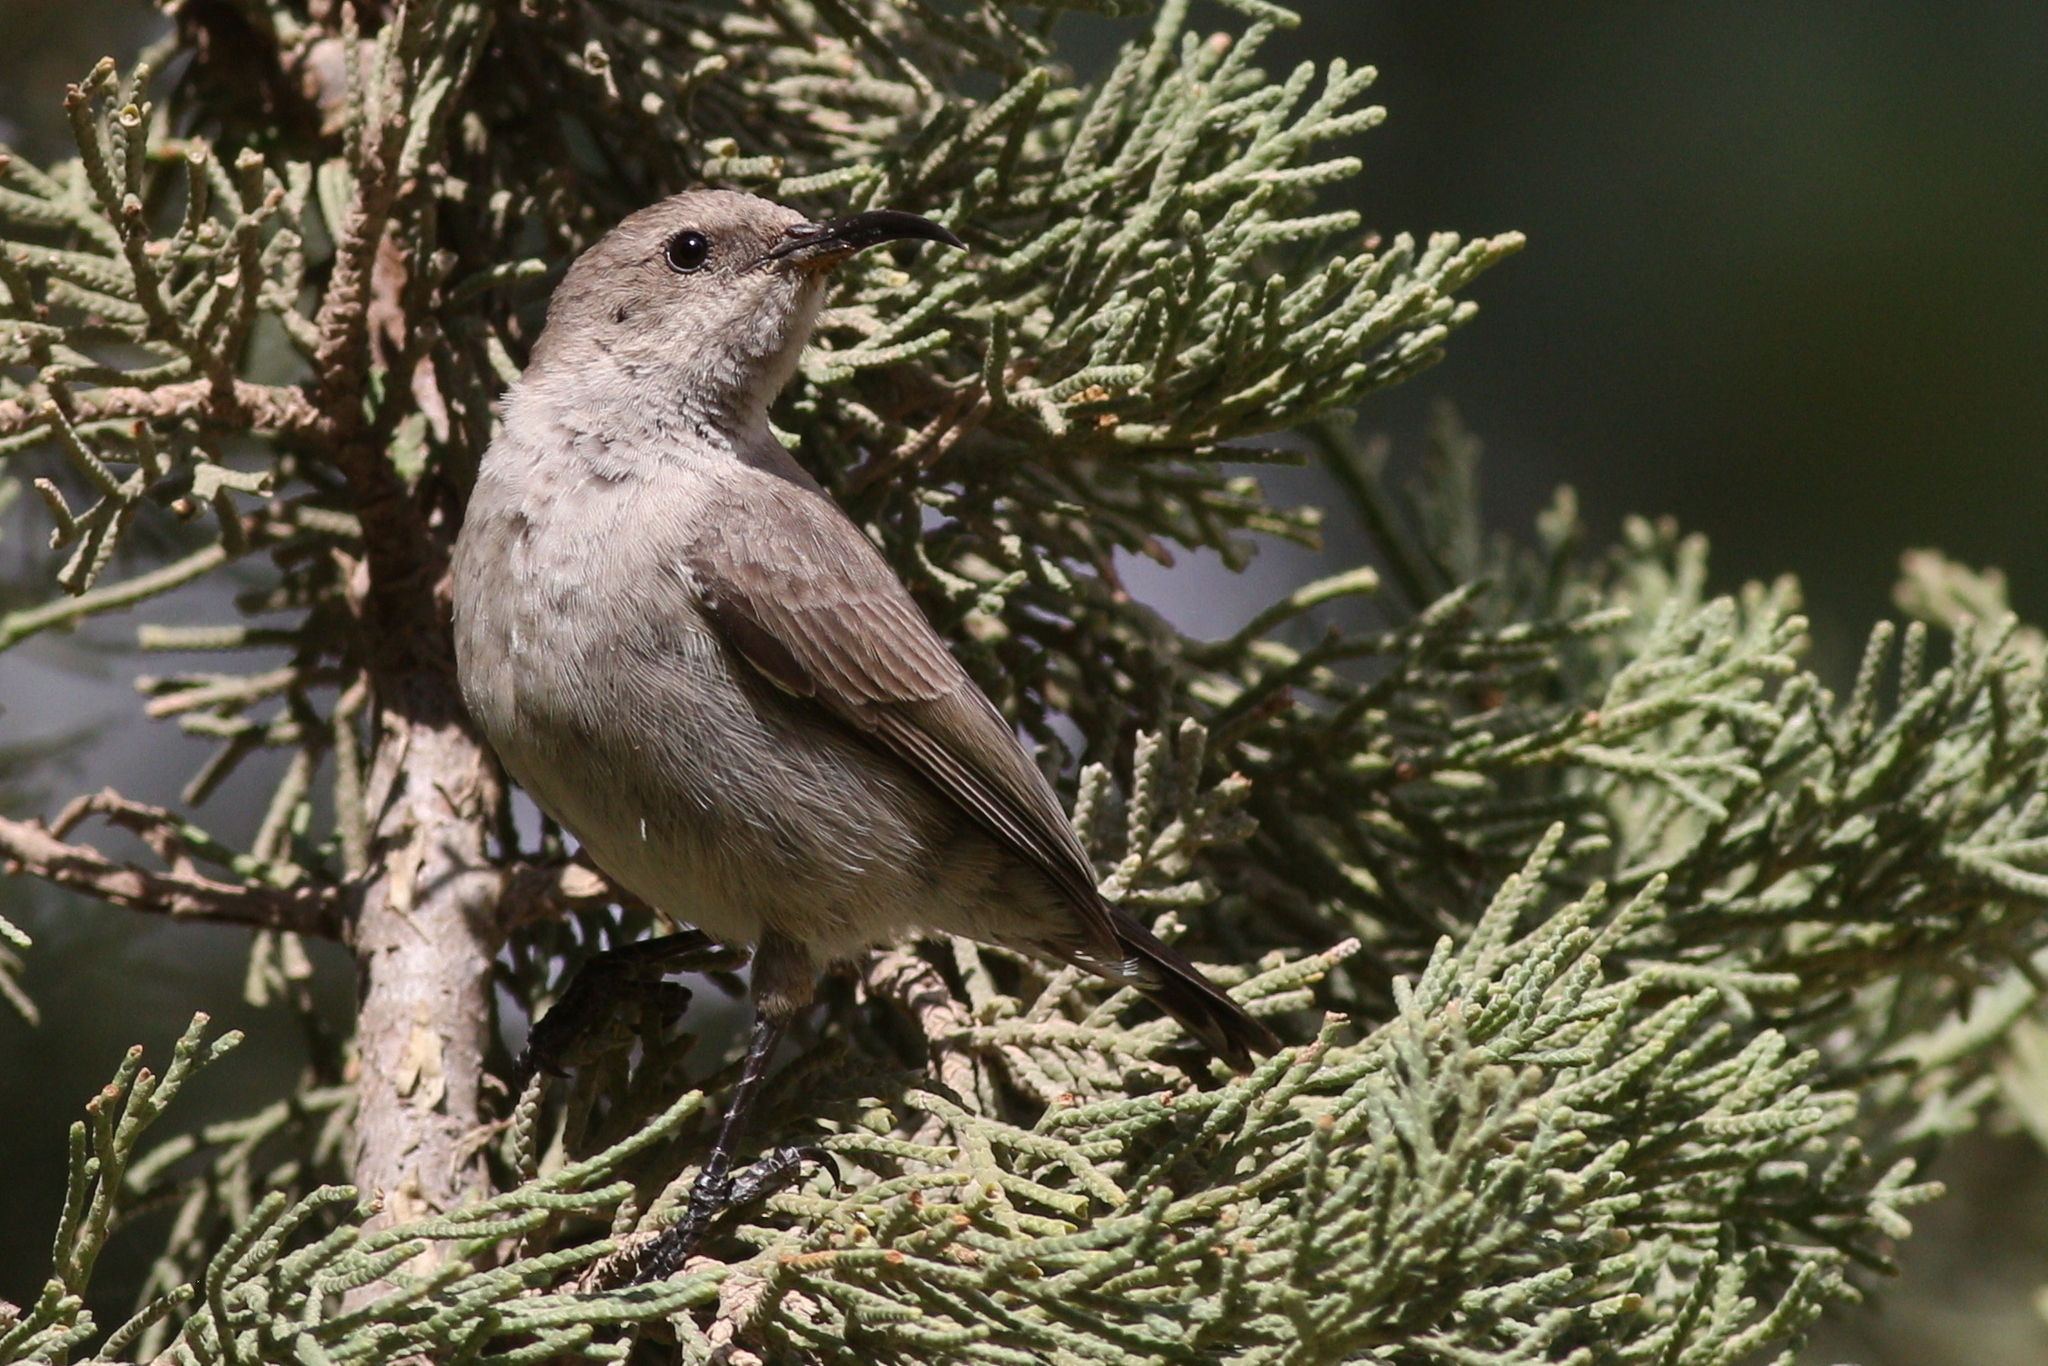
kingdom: Animalia
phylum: Chordata
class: Aves
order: Passeriformes
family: Nectariniidae
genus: Cinnyris
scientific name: Cinnyris osea
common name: Palestine sunbird
